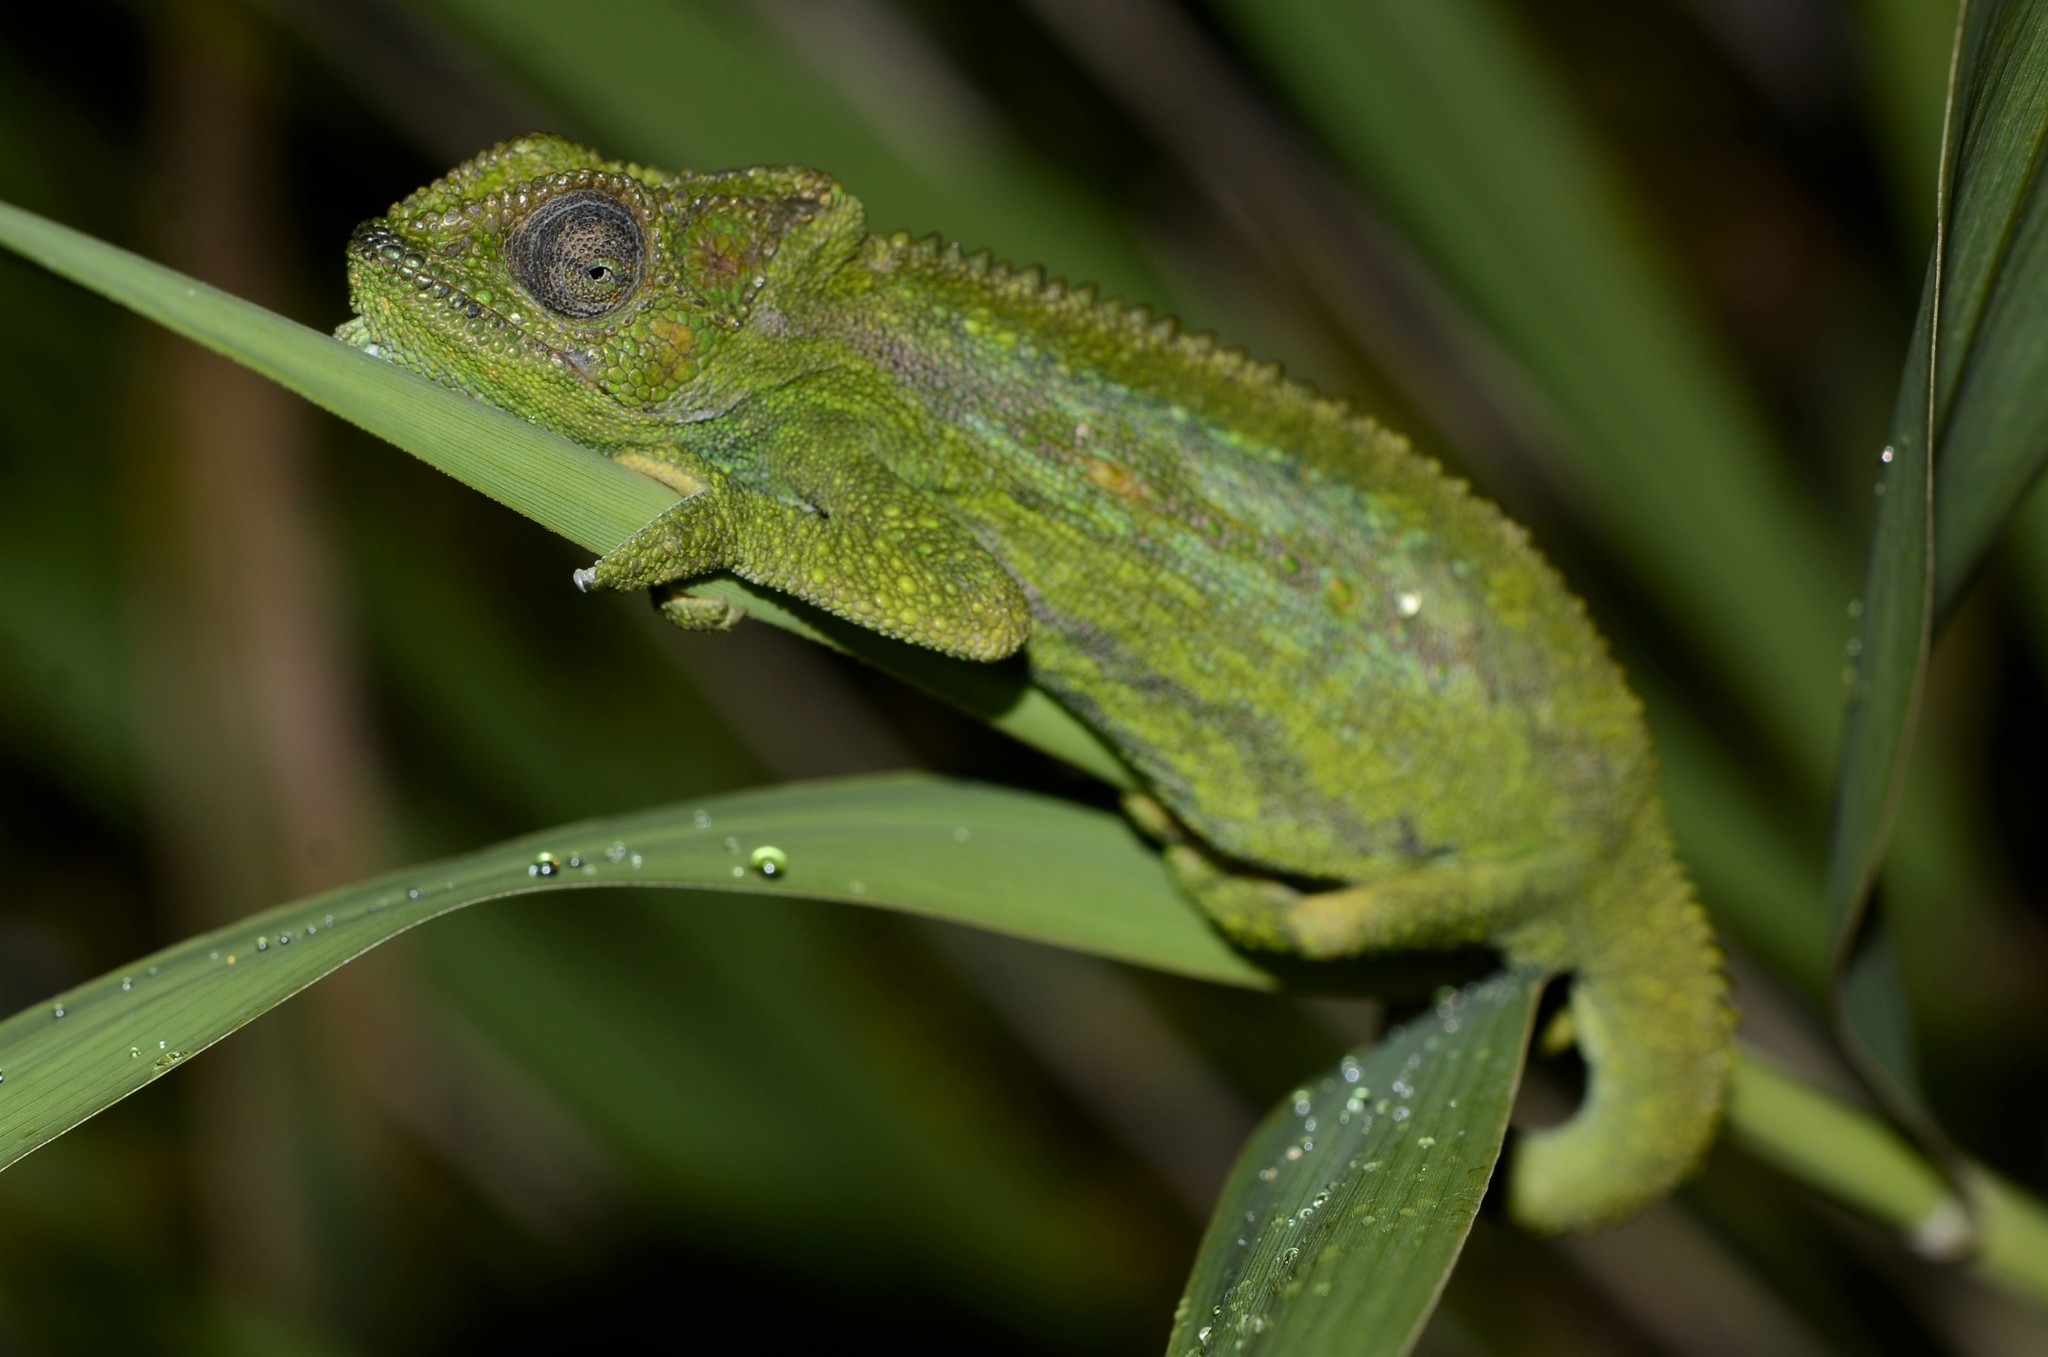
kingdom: Animalia
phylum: Chordata
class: Squamata
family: Chamaeleonidae
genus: Bradypodion
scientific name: Bradypodion pumilum
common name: Cape dwarf chameleon
